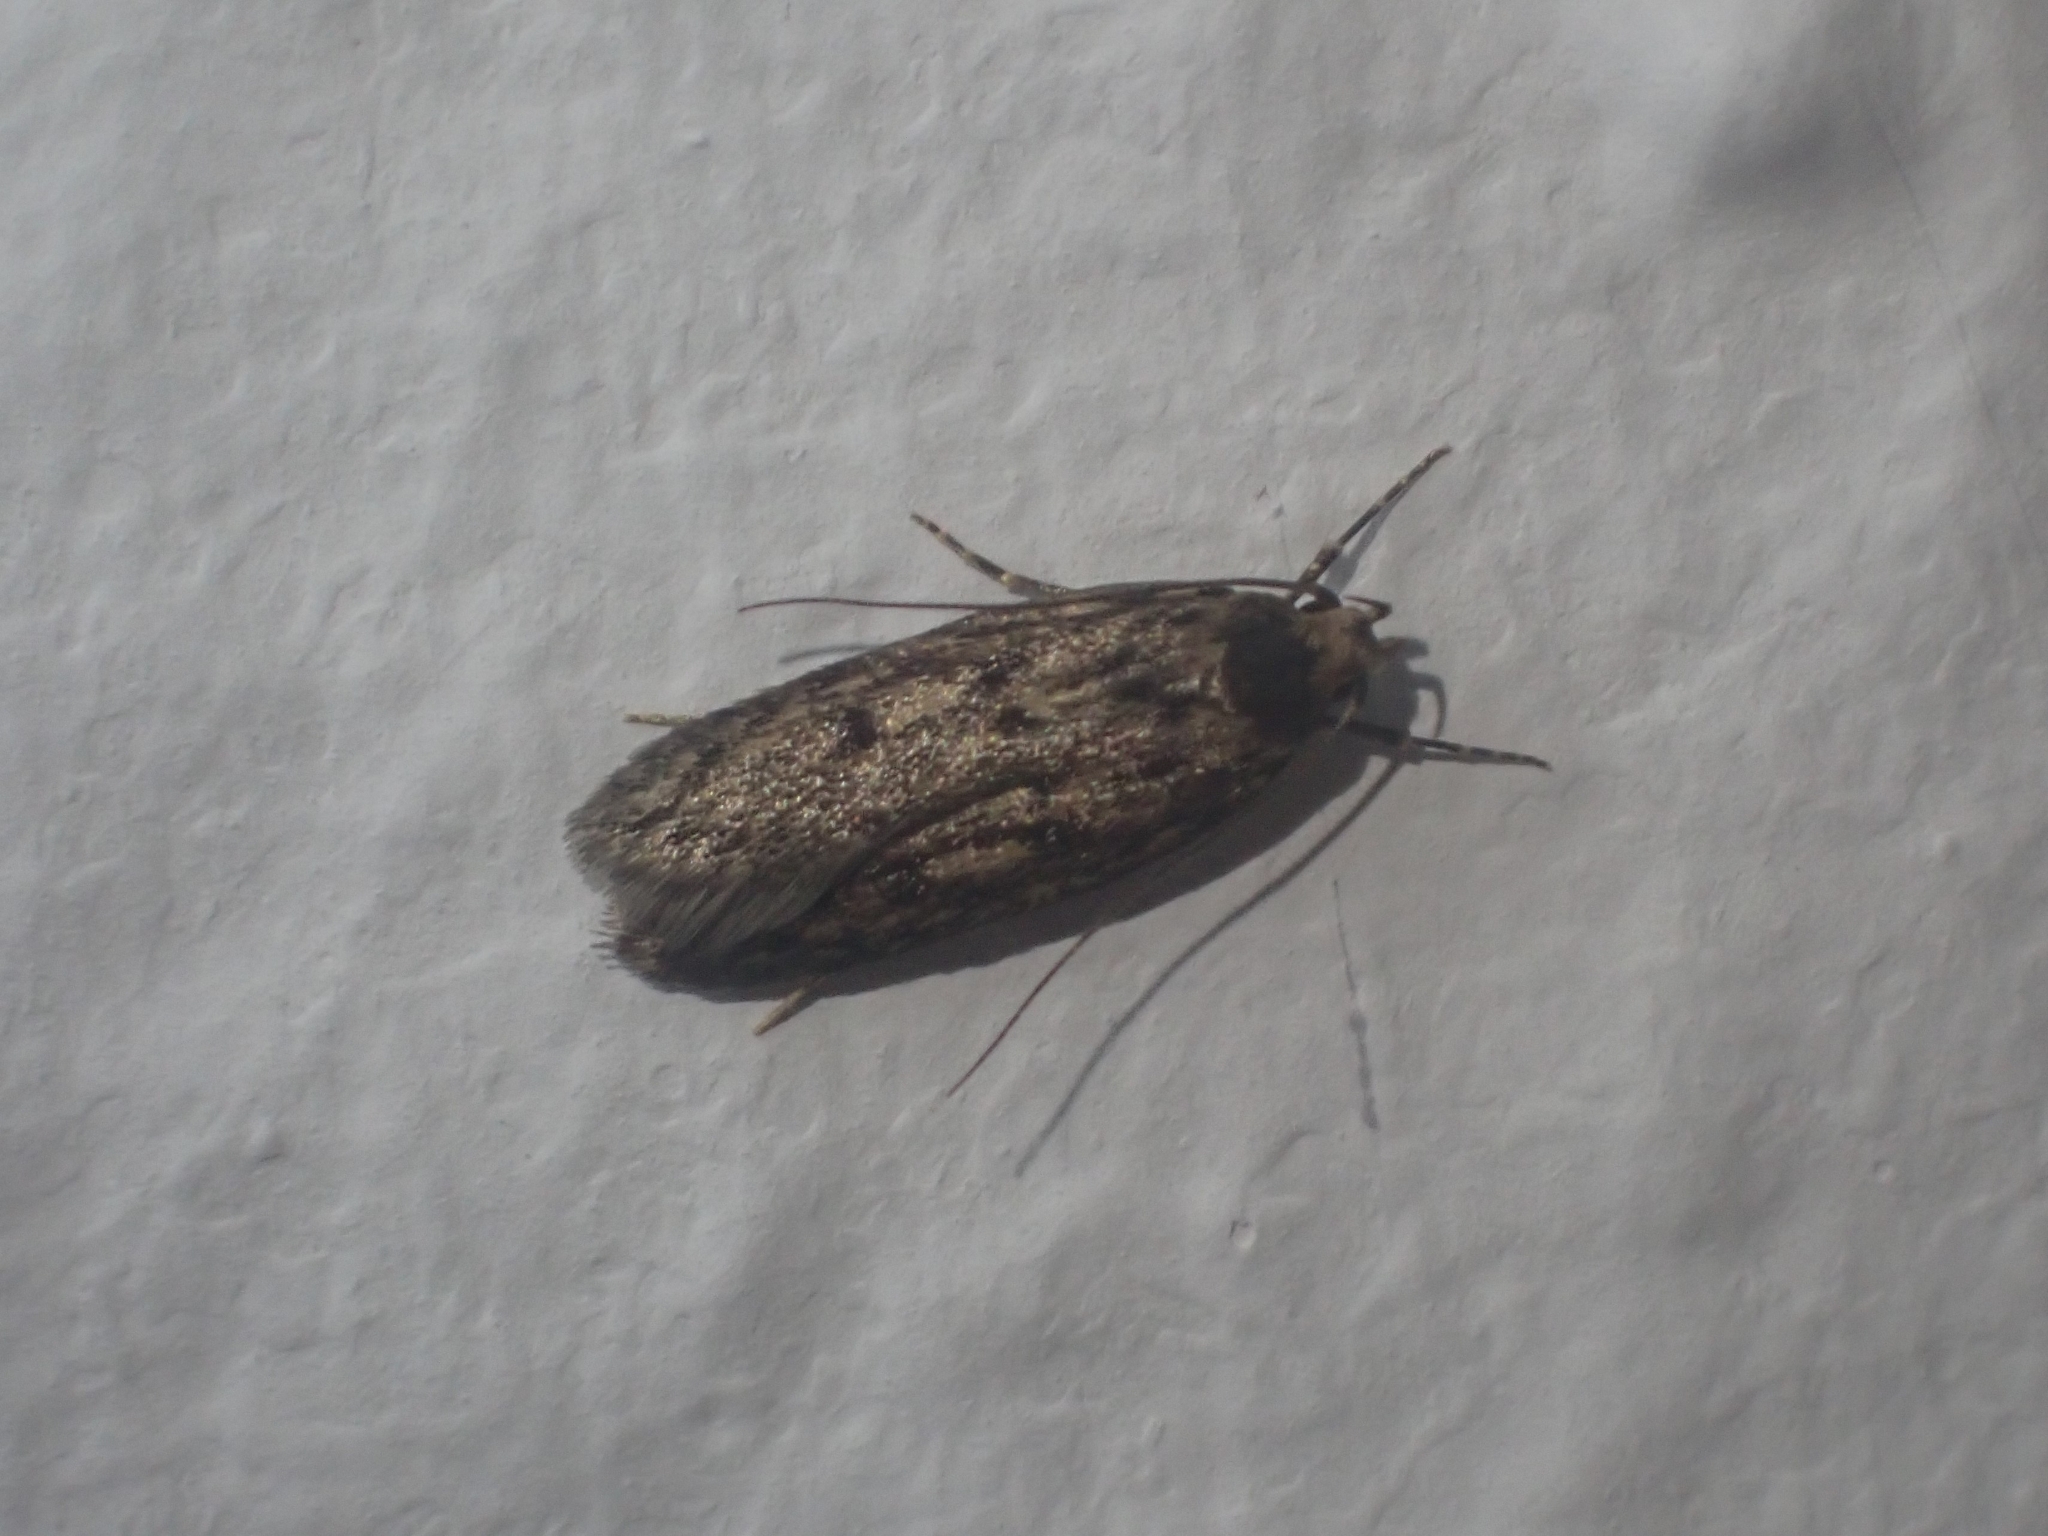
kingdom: Animalia
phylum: Arthropoda
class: Insecta
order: Lepidoptera
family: Oecophoridae
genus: Hofmannophila
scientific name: Hofmannophila pseudospretella
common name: Brown house moth
